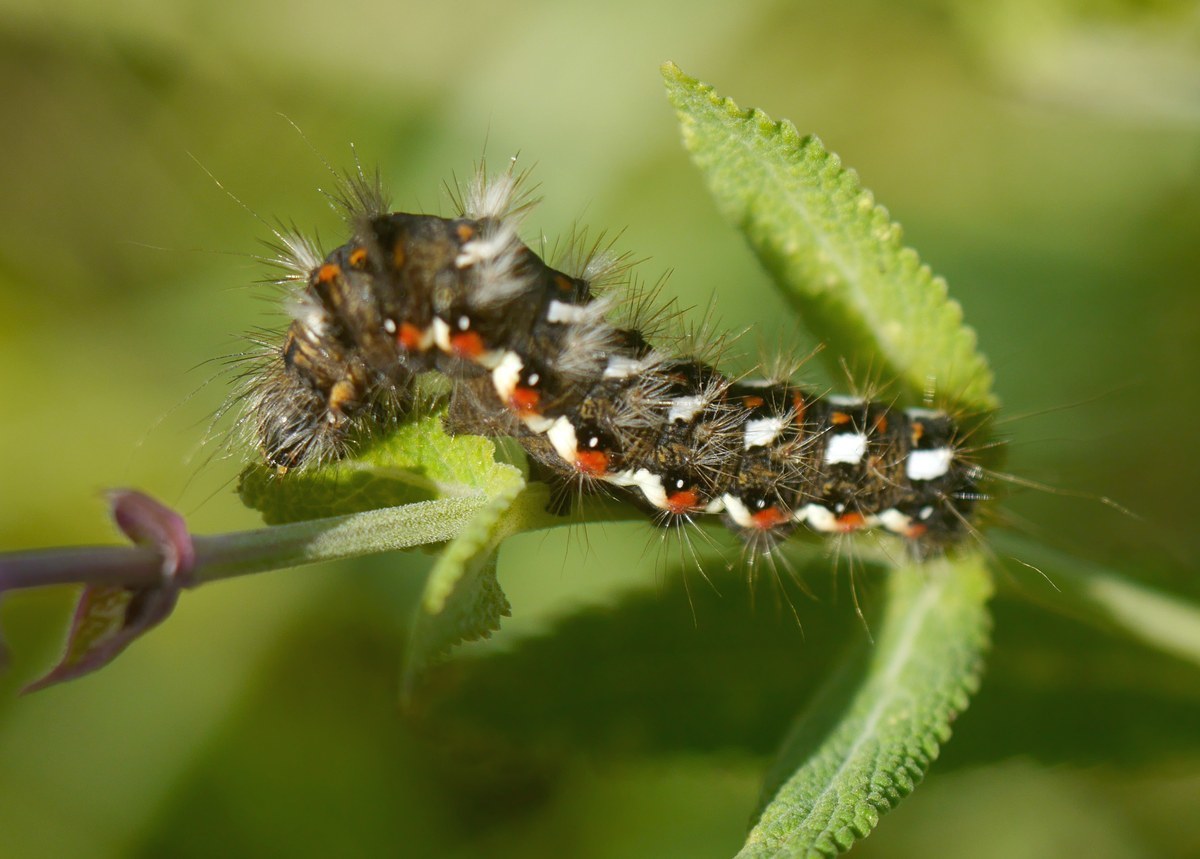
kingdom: Animalia
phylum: Arthropoda
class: Insecta
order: Lepidoptera
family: Noctuidae
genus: Acronicta
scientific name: Acronicta rumicis
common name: Knot grass
